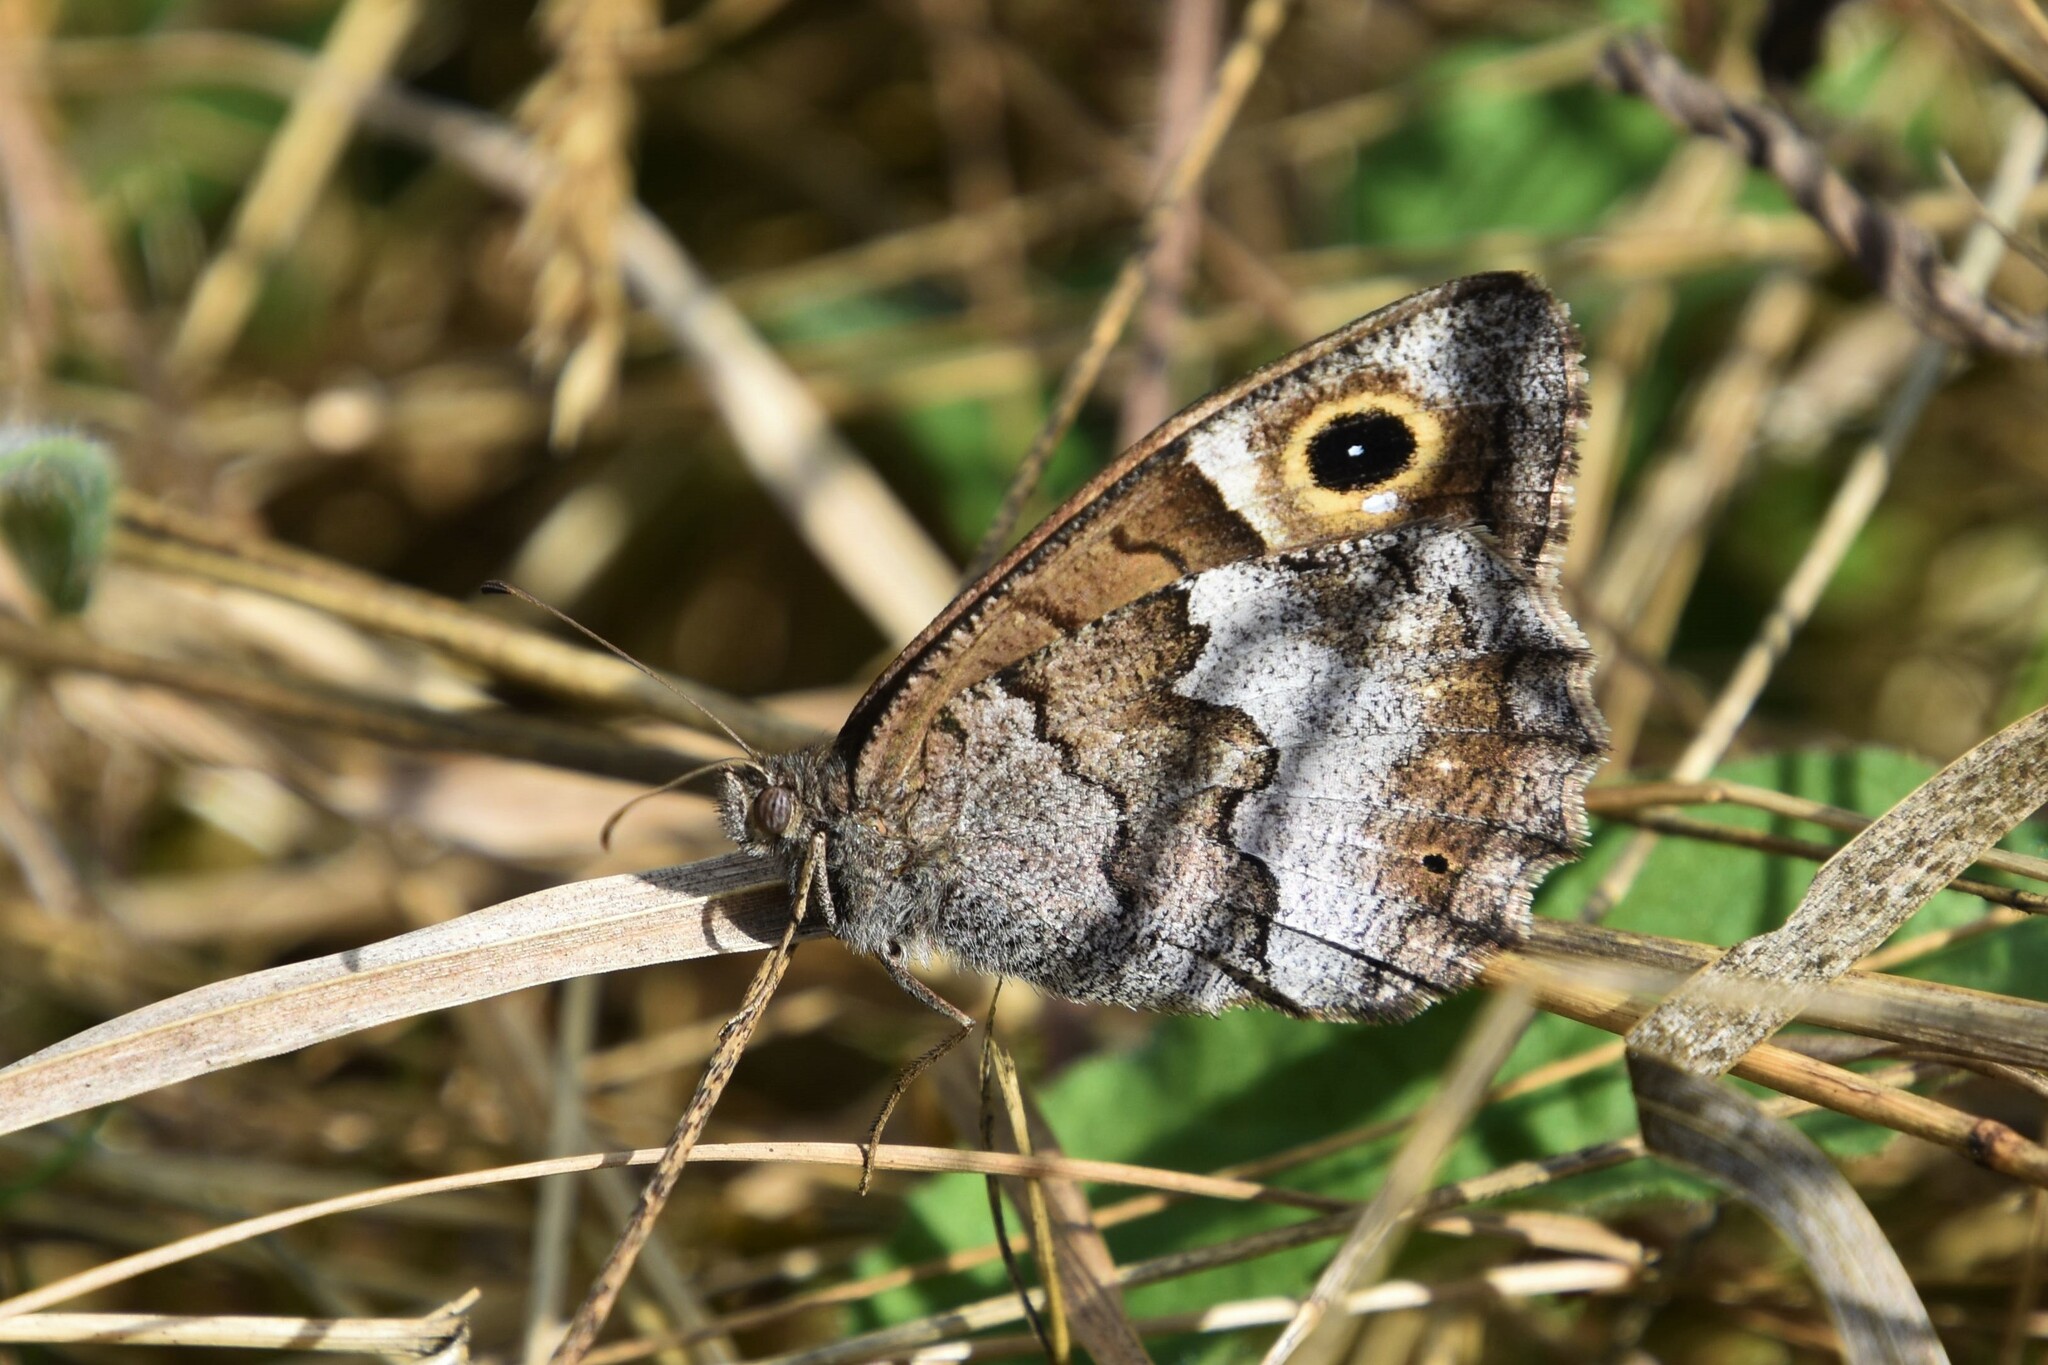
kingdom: Animalia
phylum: Arthropoda
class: Insecta
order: Lepidoptera
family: Nymphalidae
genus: Hipparchia
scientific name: Hipparchia statilinus
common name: Tree grayling
